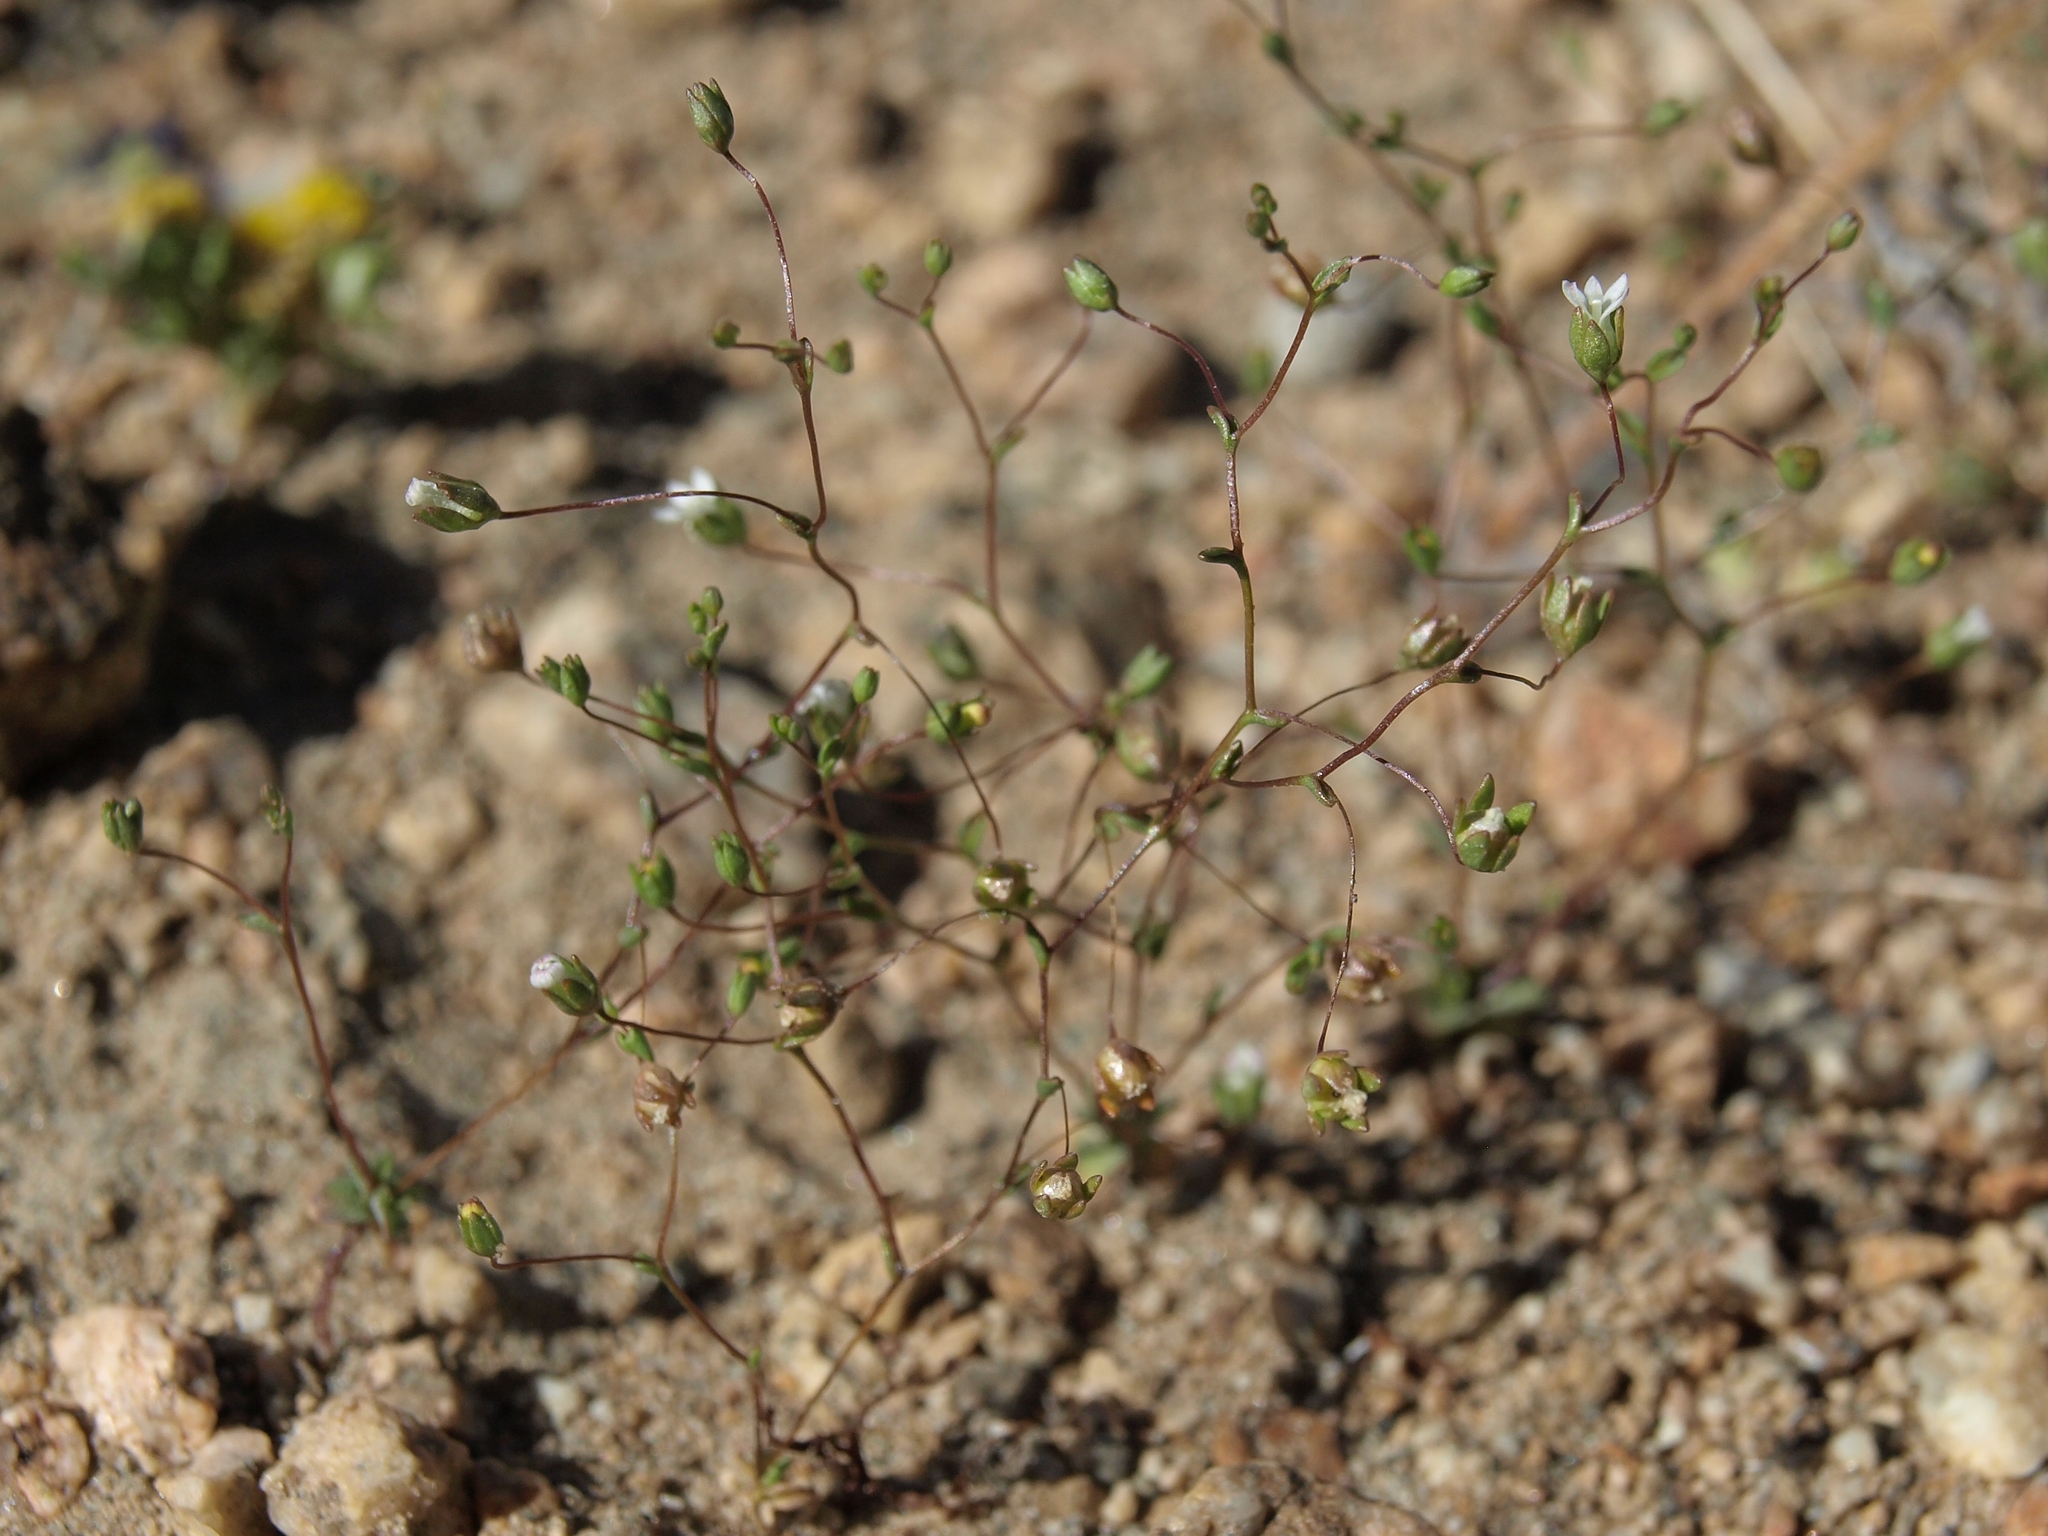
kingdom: Plantae
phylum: Tracheophyta
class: Magnoliopsida
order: Asterales
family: Campanulaceae
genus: Nemacladus
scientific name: Nemacladus sigmoideus
